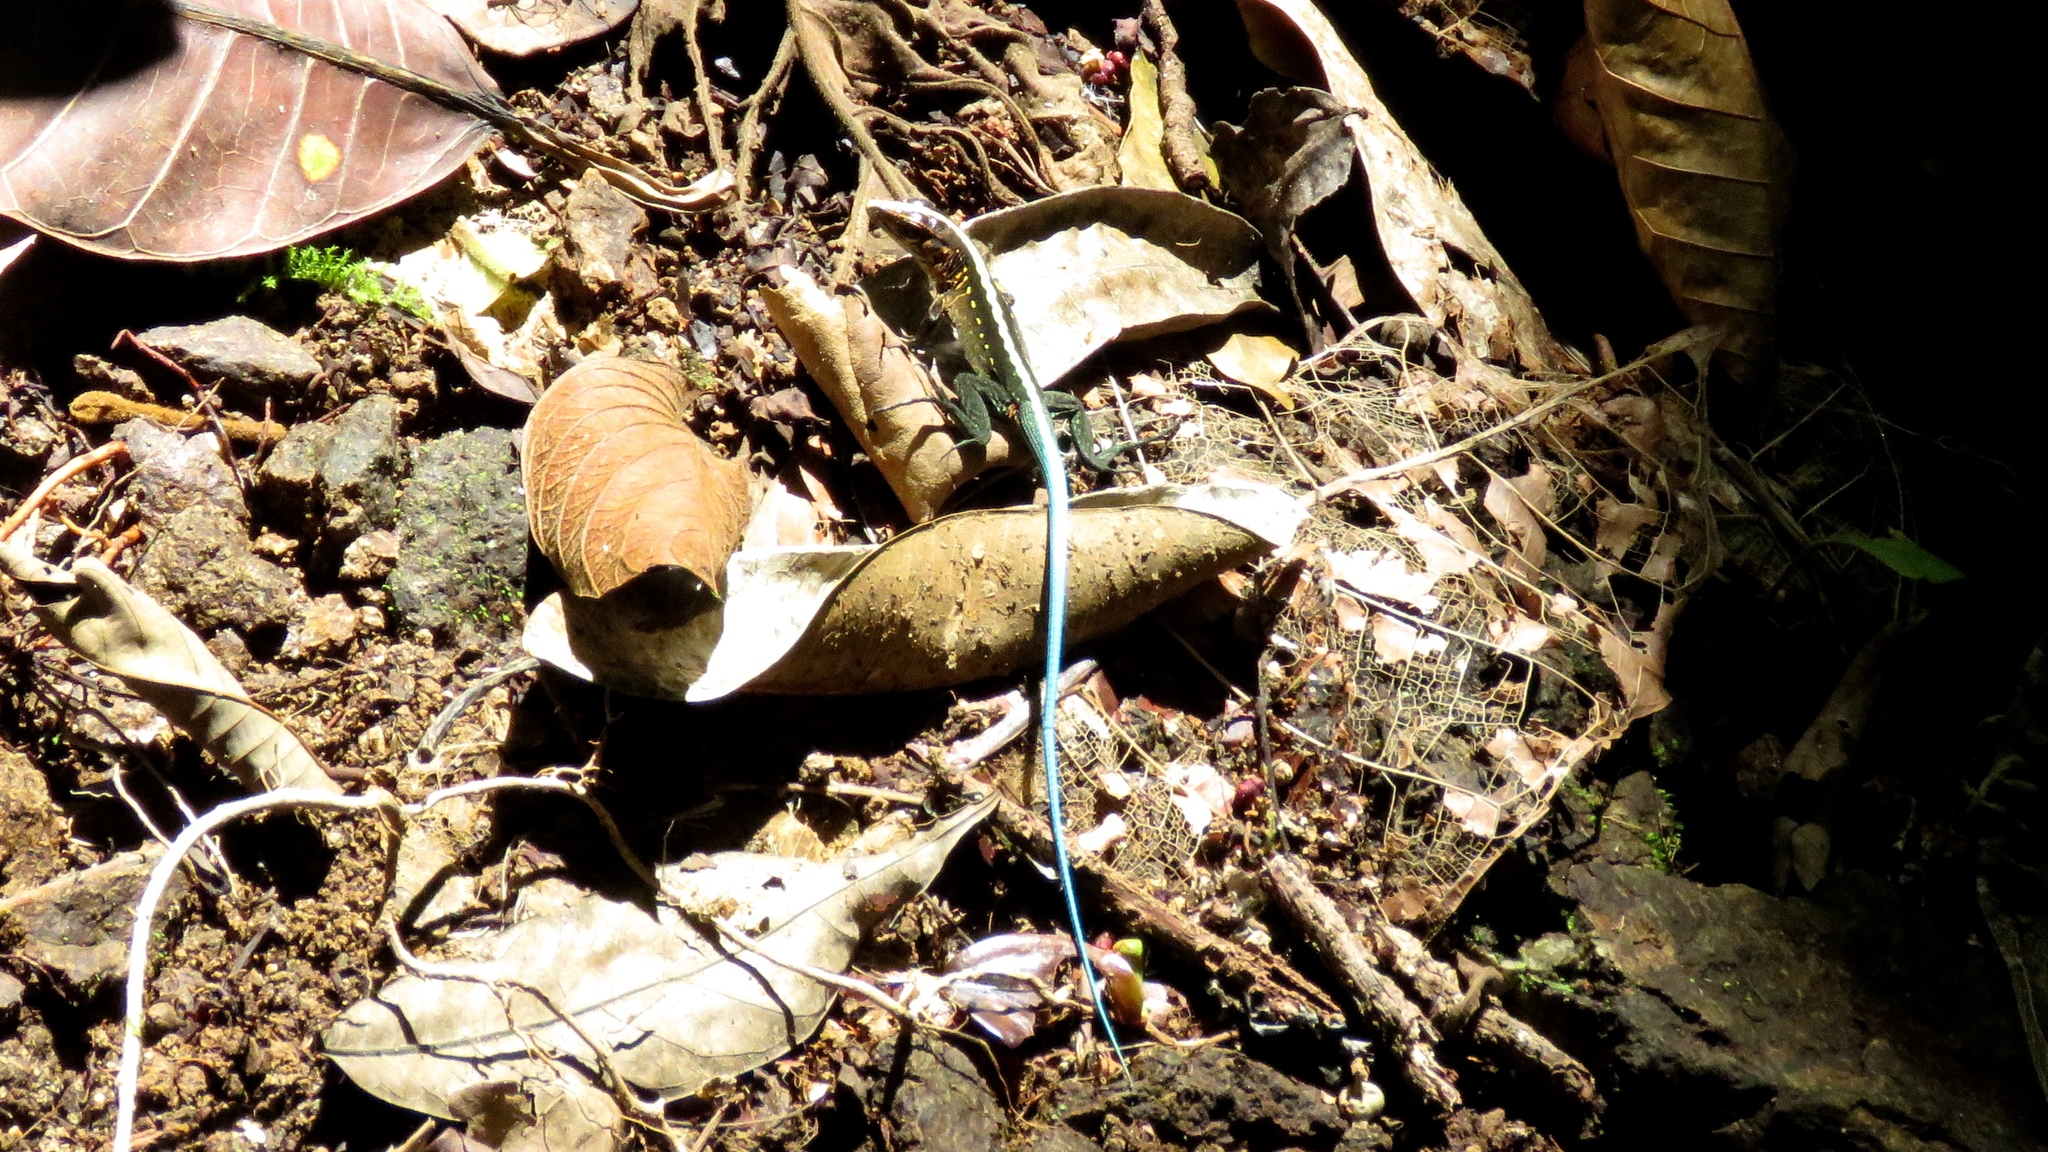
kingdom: Animalia
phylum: Chordata
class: Squamata
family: Teiidae
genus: Holcosus
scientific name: Holcosus festivus
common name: Middle american ameiva
